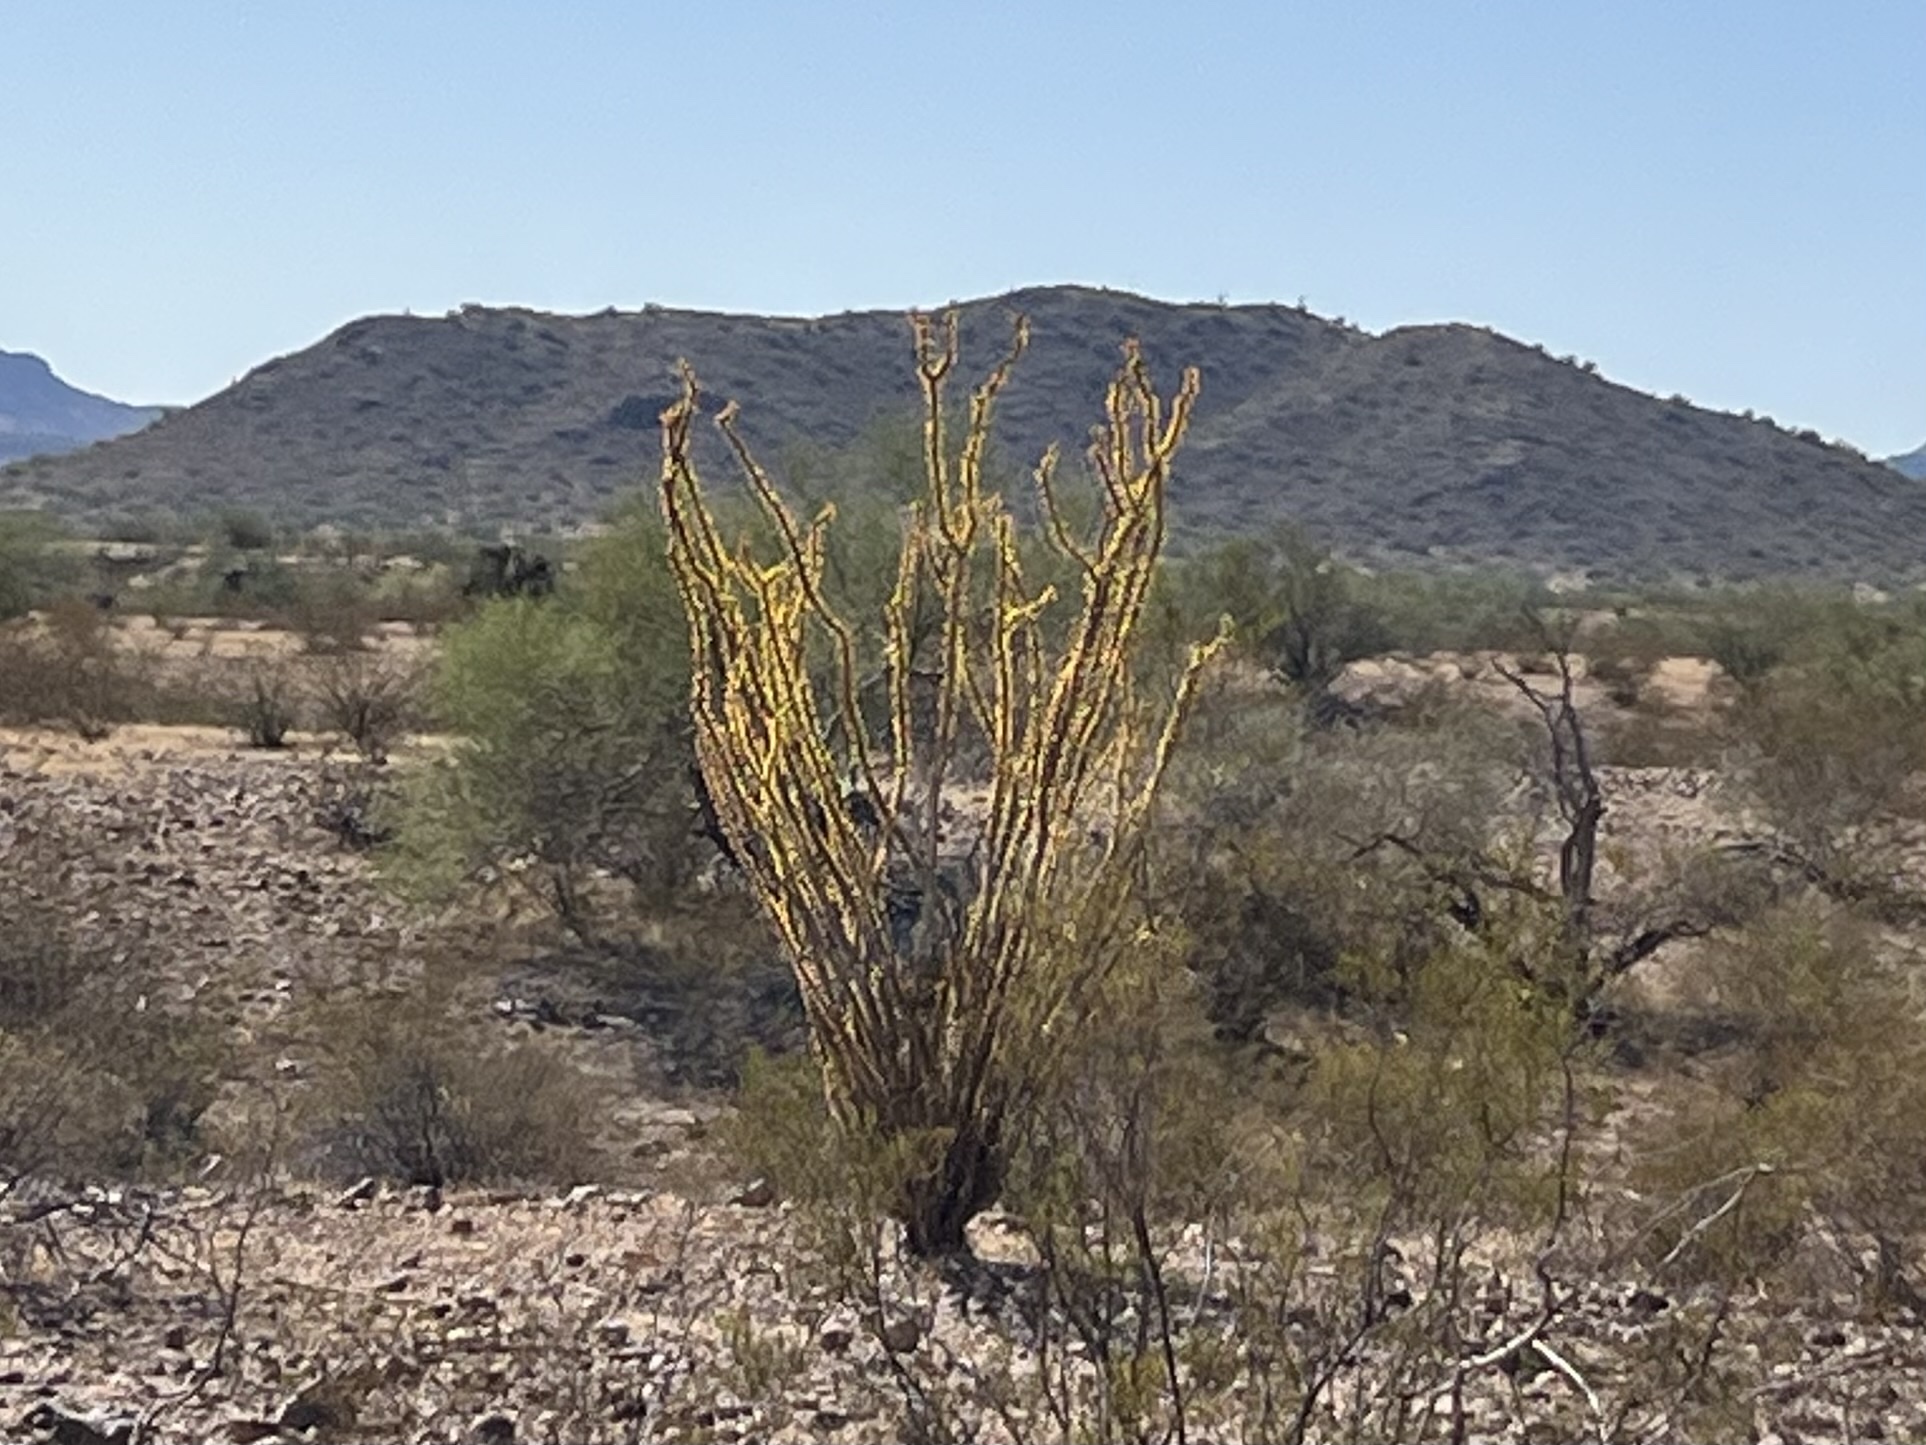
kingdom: Plantae
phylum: Tracheophyta
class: Magnoliopsida
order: Ericales
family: Fouquieriaceae
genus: Fouquieria
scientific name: Fouquieria splendens
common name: Vine-cactus
